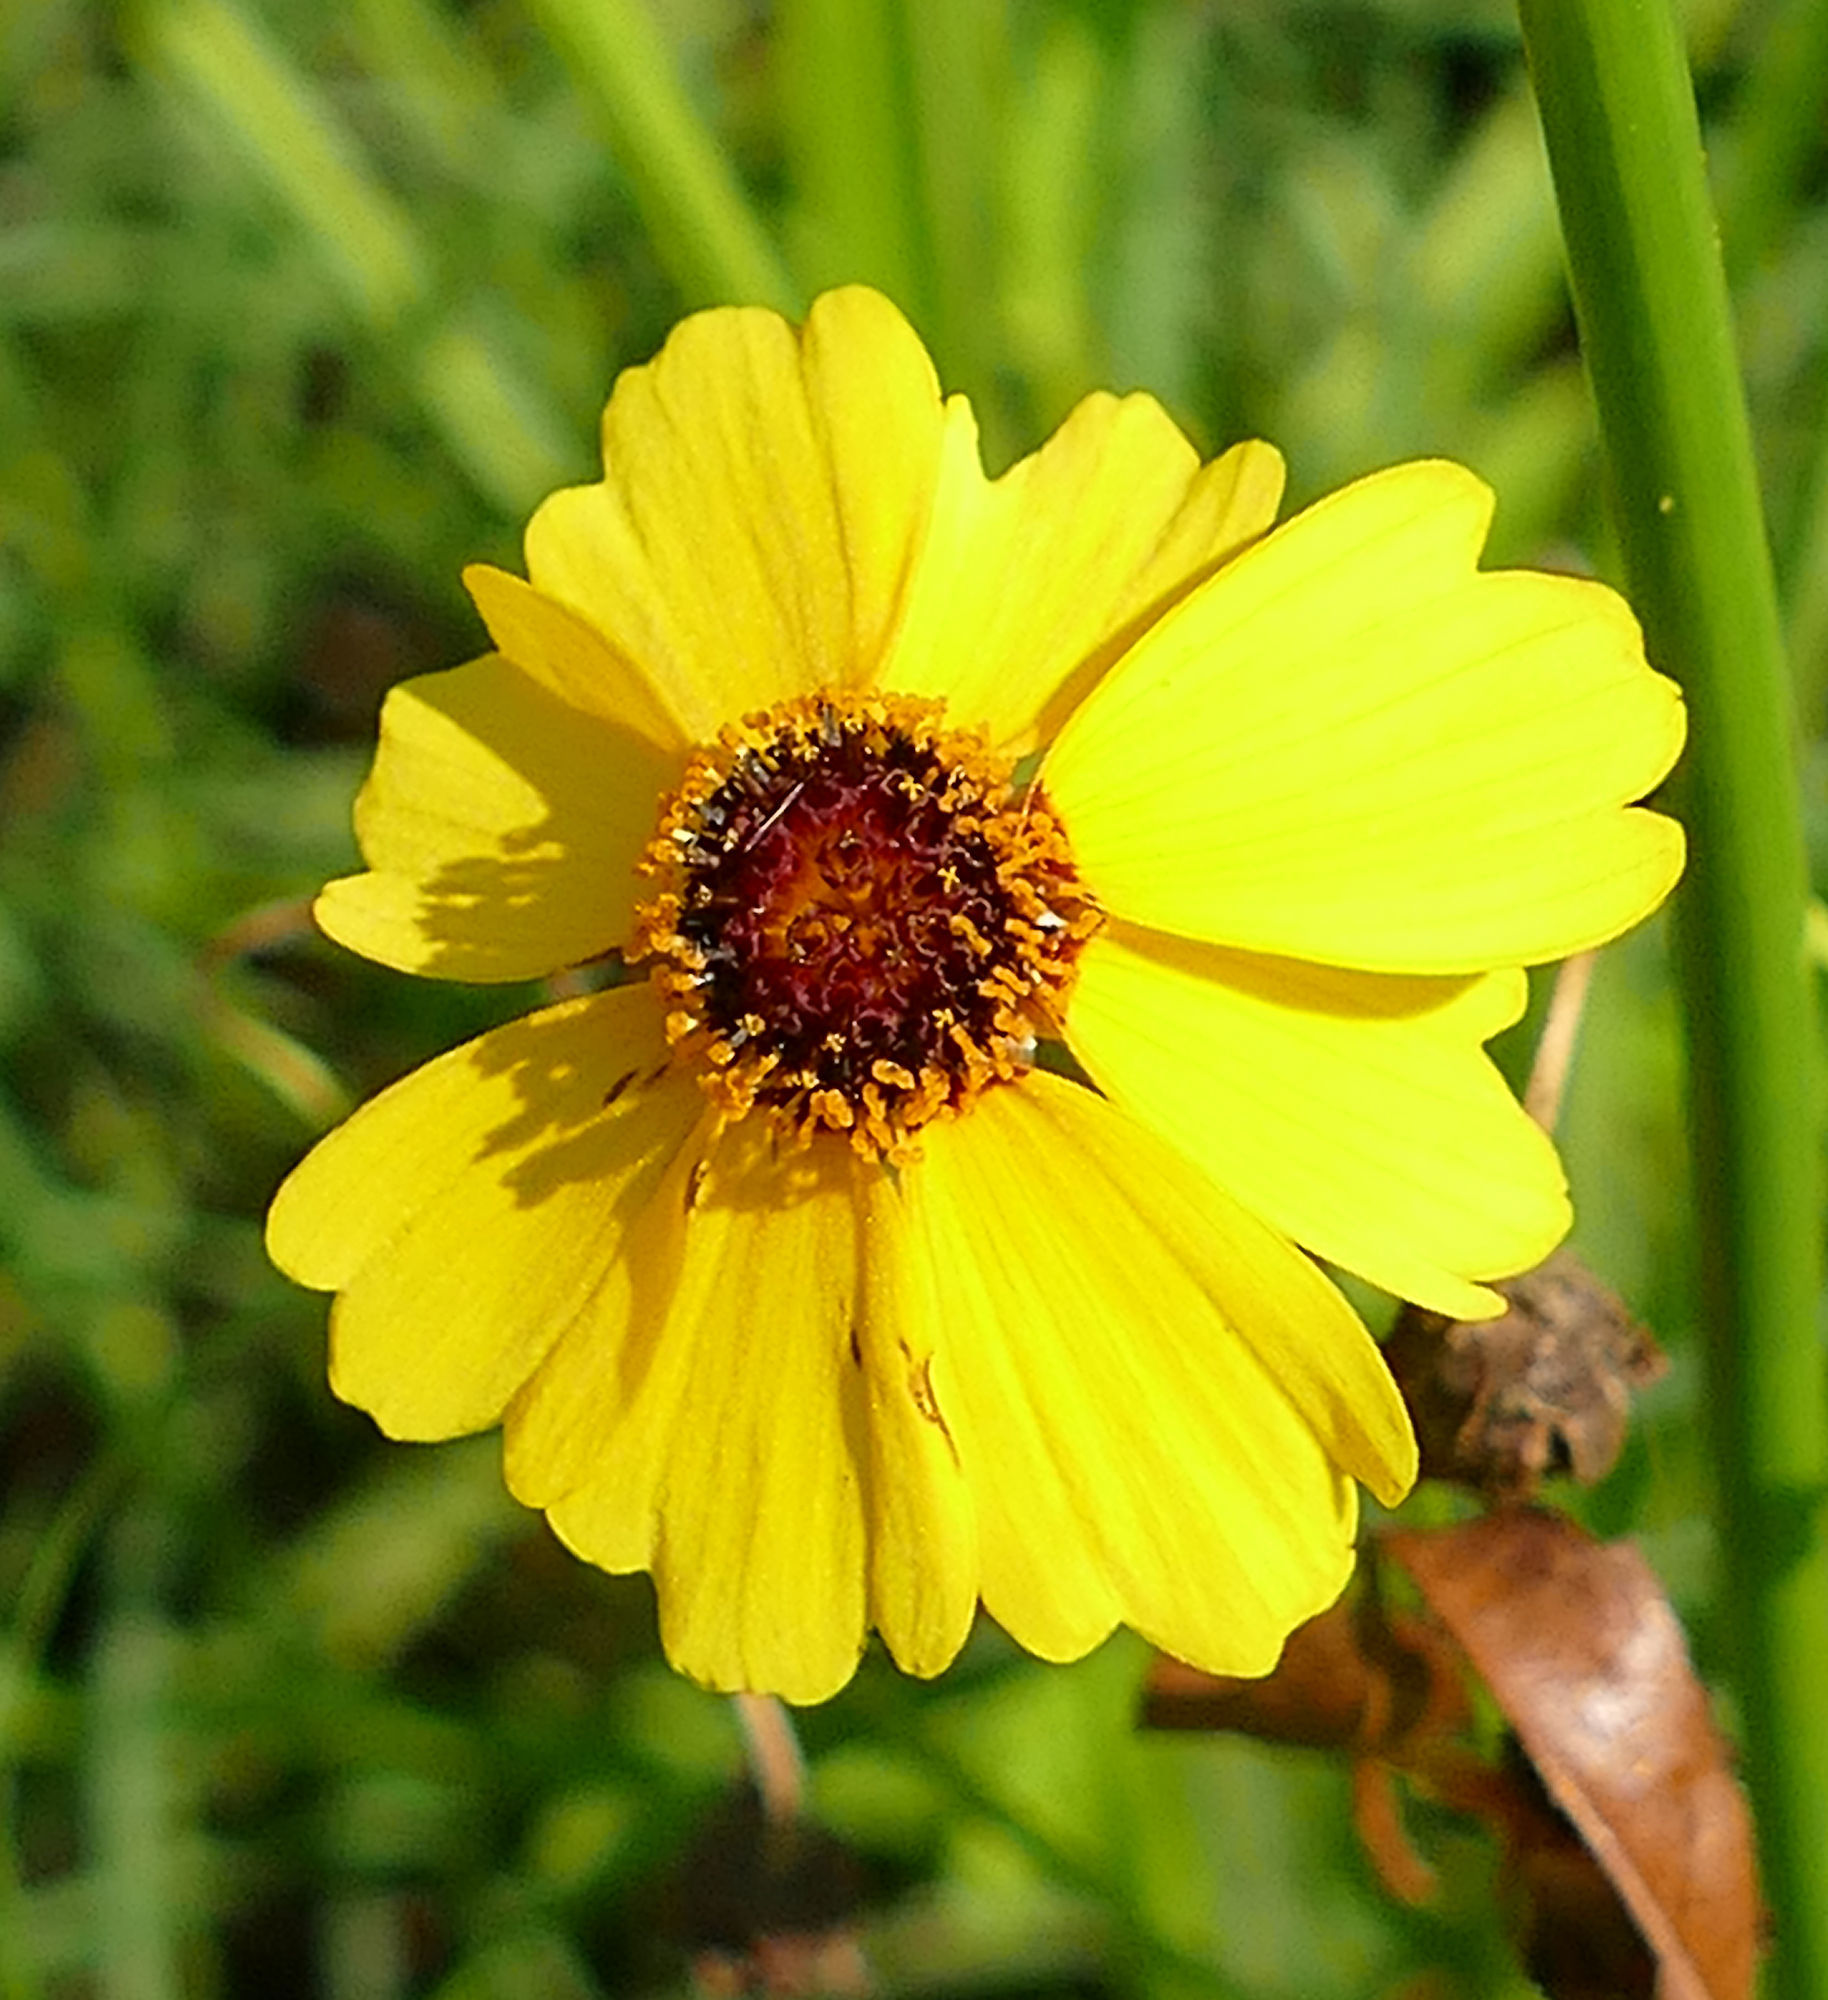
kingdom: Plantae
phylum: Tracheophyta
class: Magnoliopsida
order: Asterales
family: Asteraceae
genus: Thelesperma
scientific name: Thelesperma filifolium
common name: Stiff greenthread
